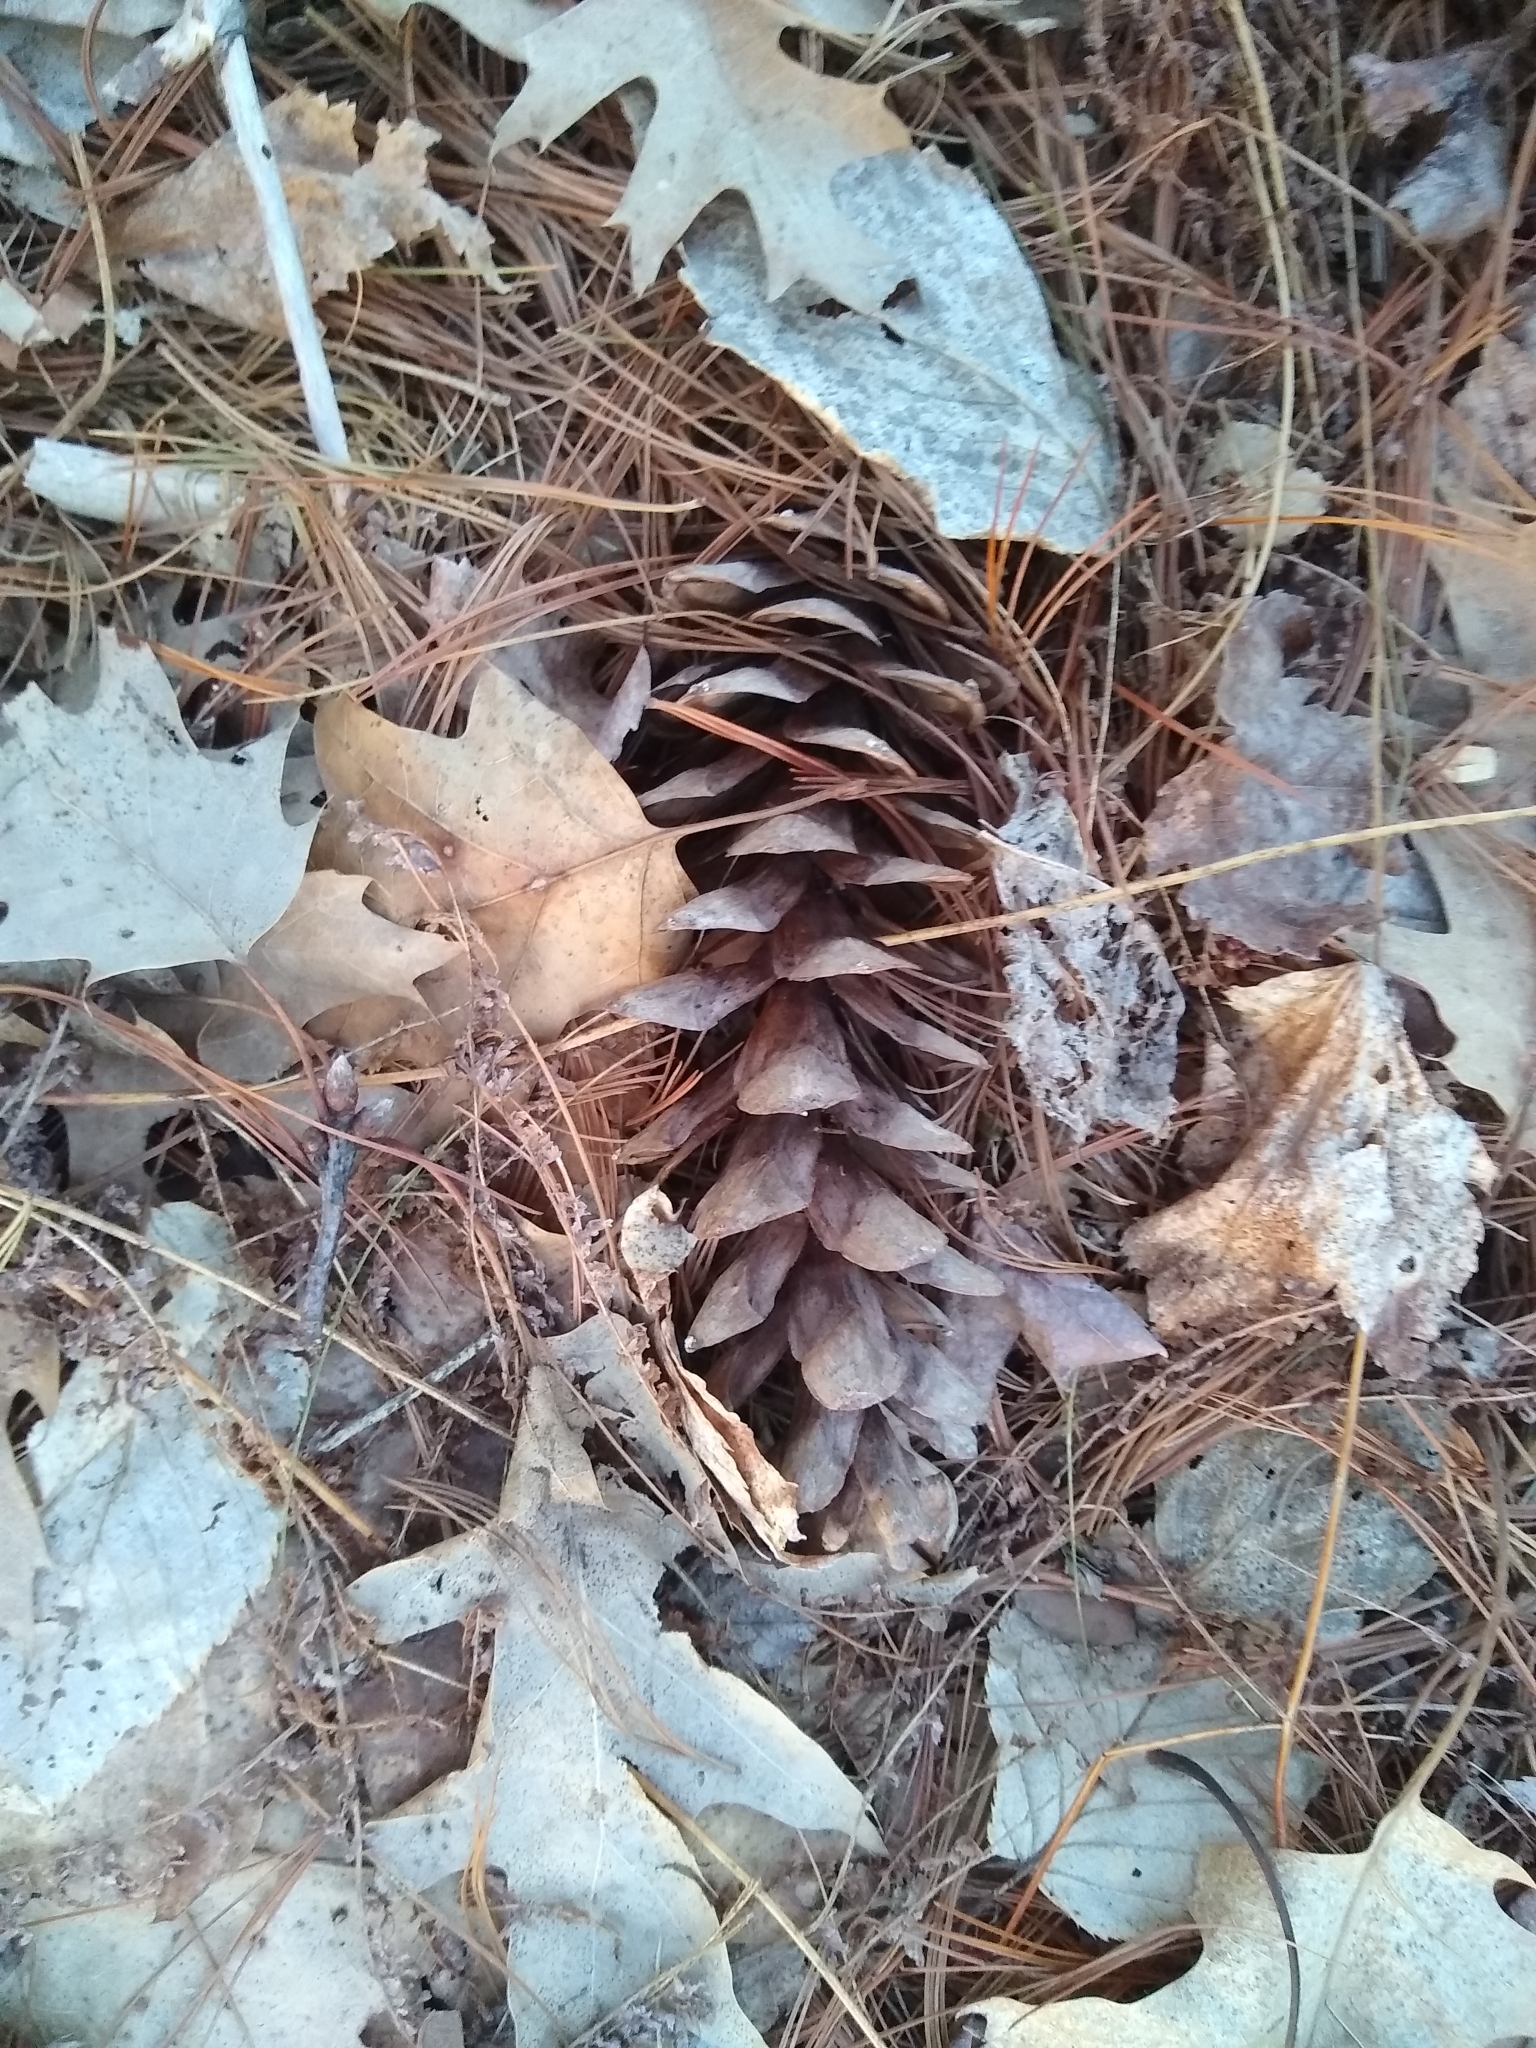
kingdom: Plantae
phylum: Tracheophyta
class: Pinopsida
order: Pinales
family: Pinaceae
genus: Pinus
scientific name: Pinus strobus
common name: Weymouth pine
